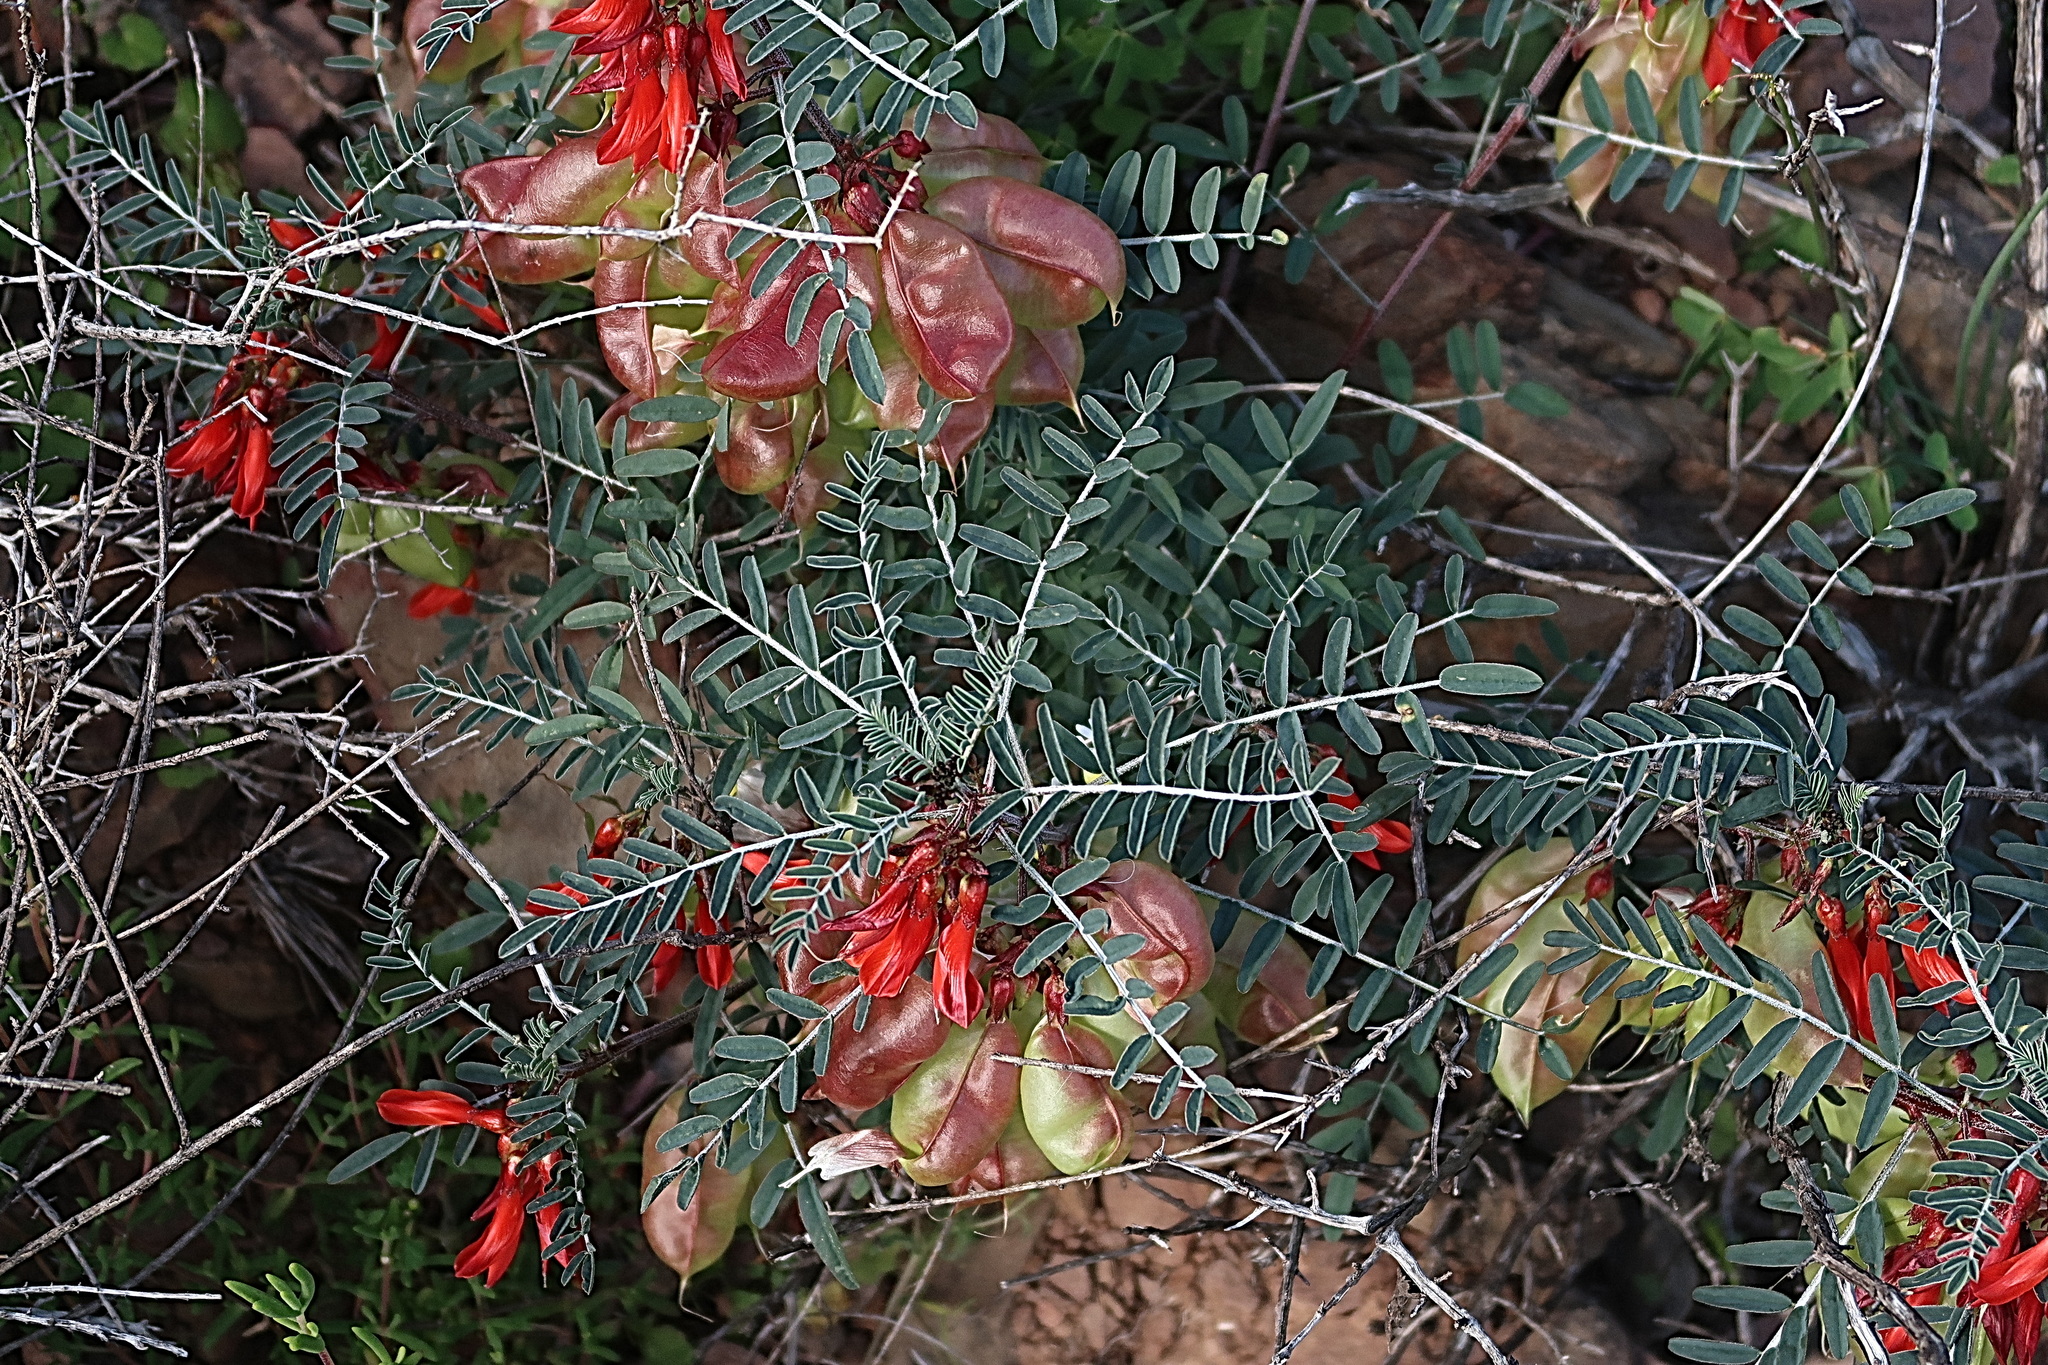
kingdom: Plantae
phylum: Tracheophyta
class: Magnoliopsida
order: Fabales
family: Fabaceae
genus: Lessertia
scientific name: Lessertia frutescens
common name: Balloon-pea
